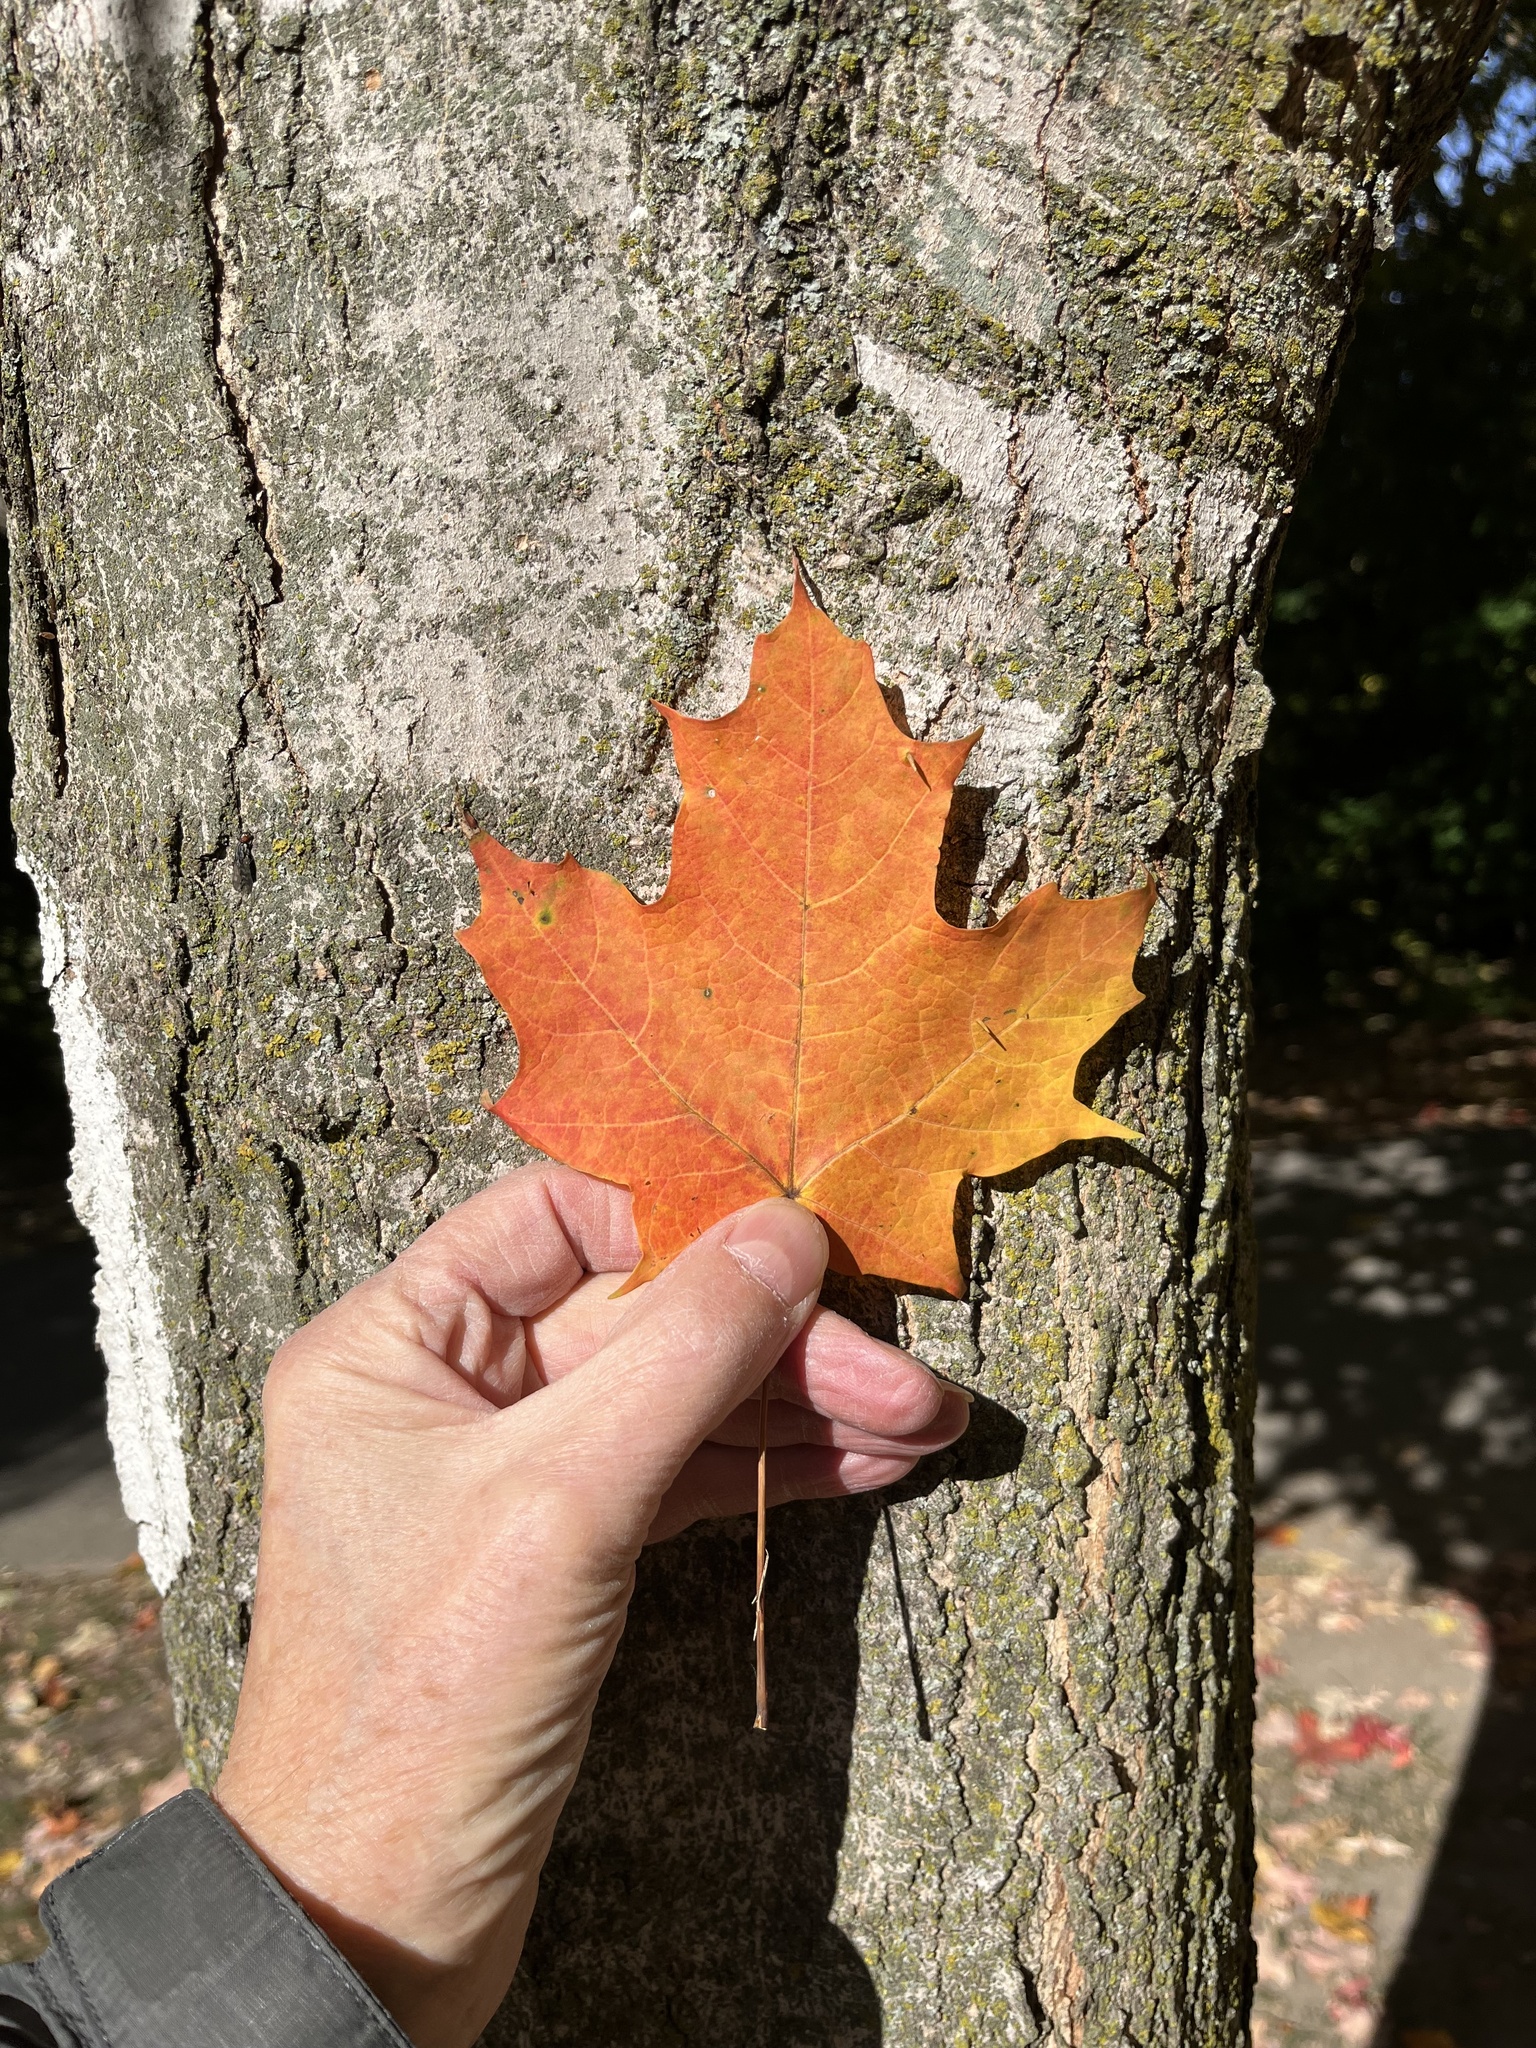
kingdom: Plantae
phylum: Tracheophyta
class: Magnoliopsida
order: Sapindales
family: Sapindaceae
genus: Acer
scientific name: Acer saccharum
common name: Sugar maple
